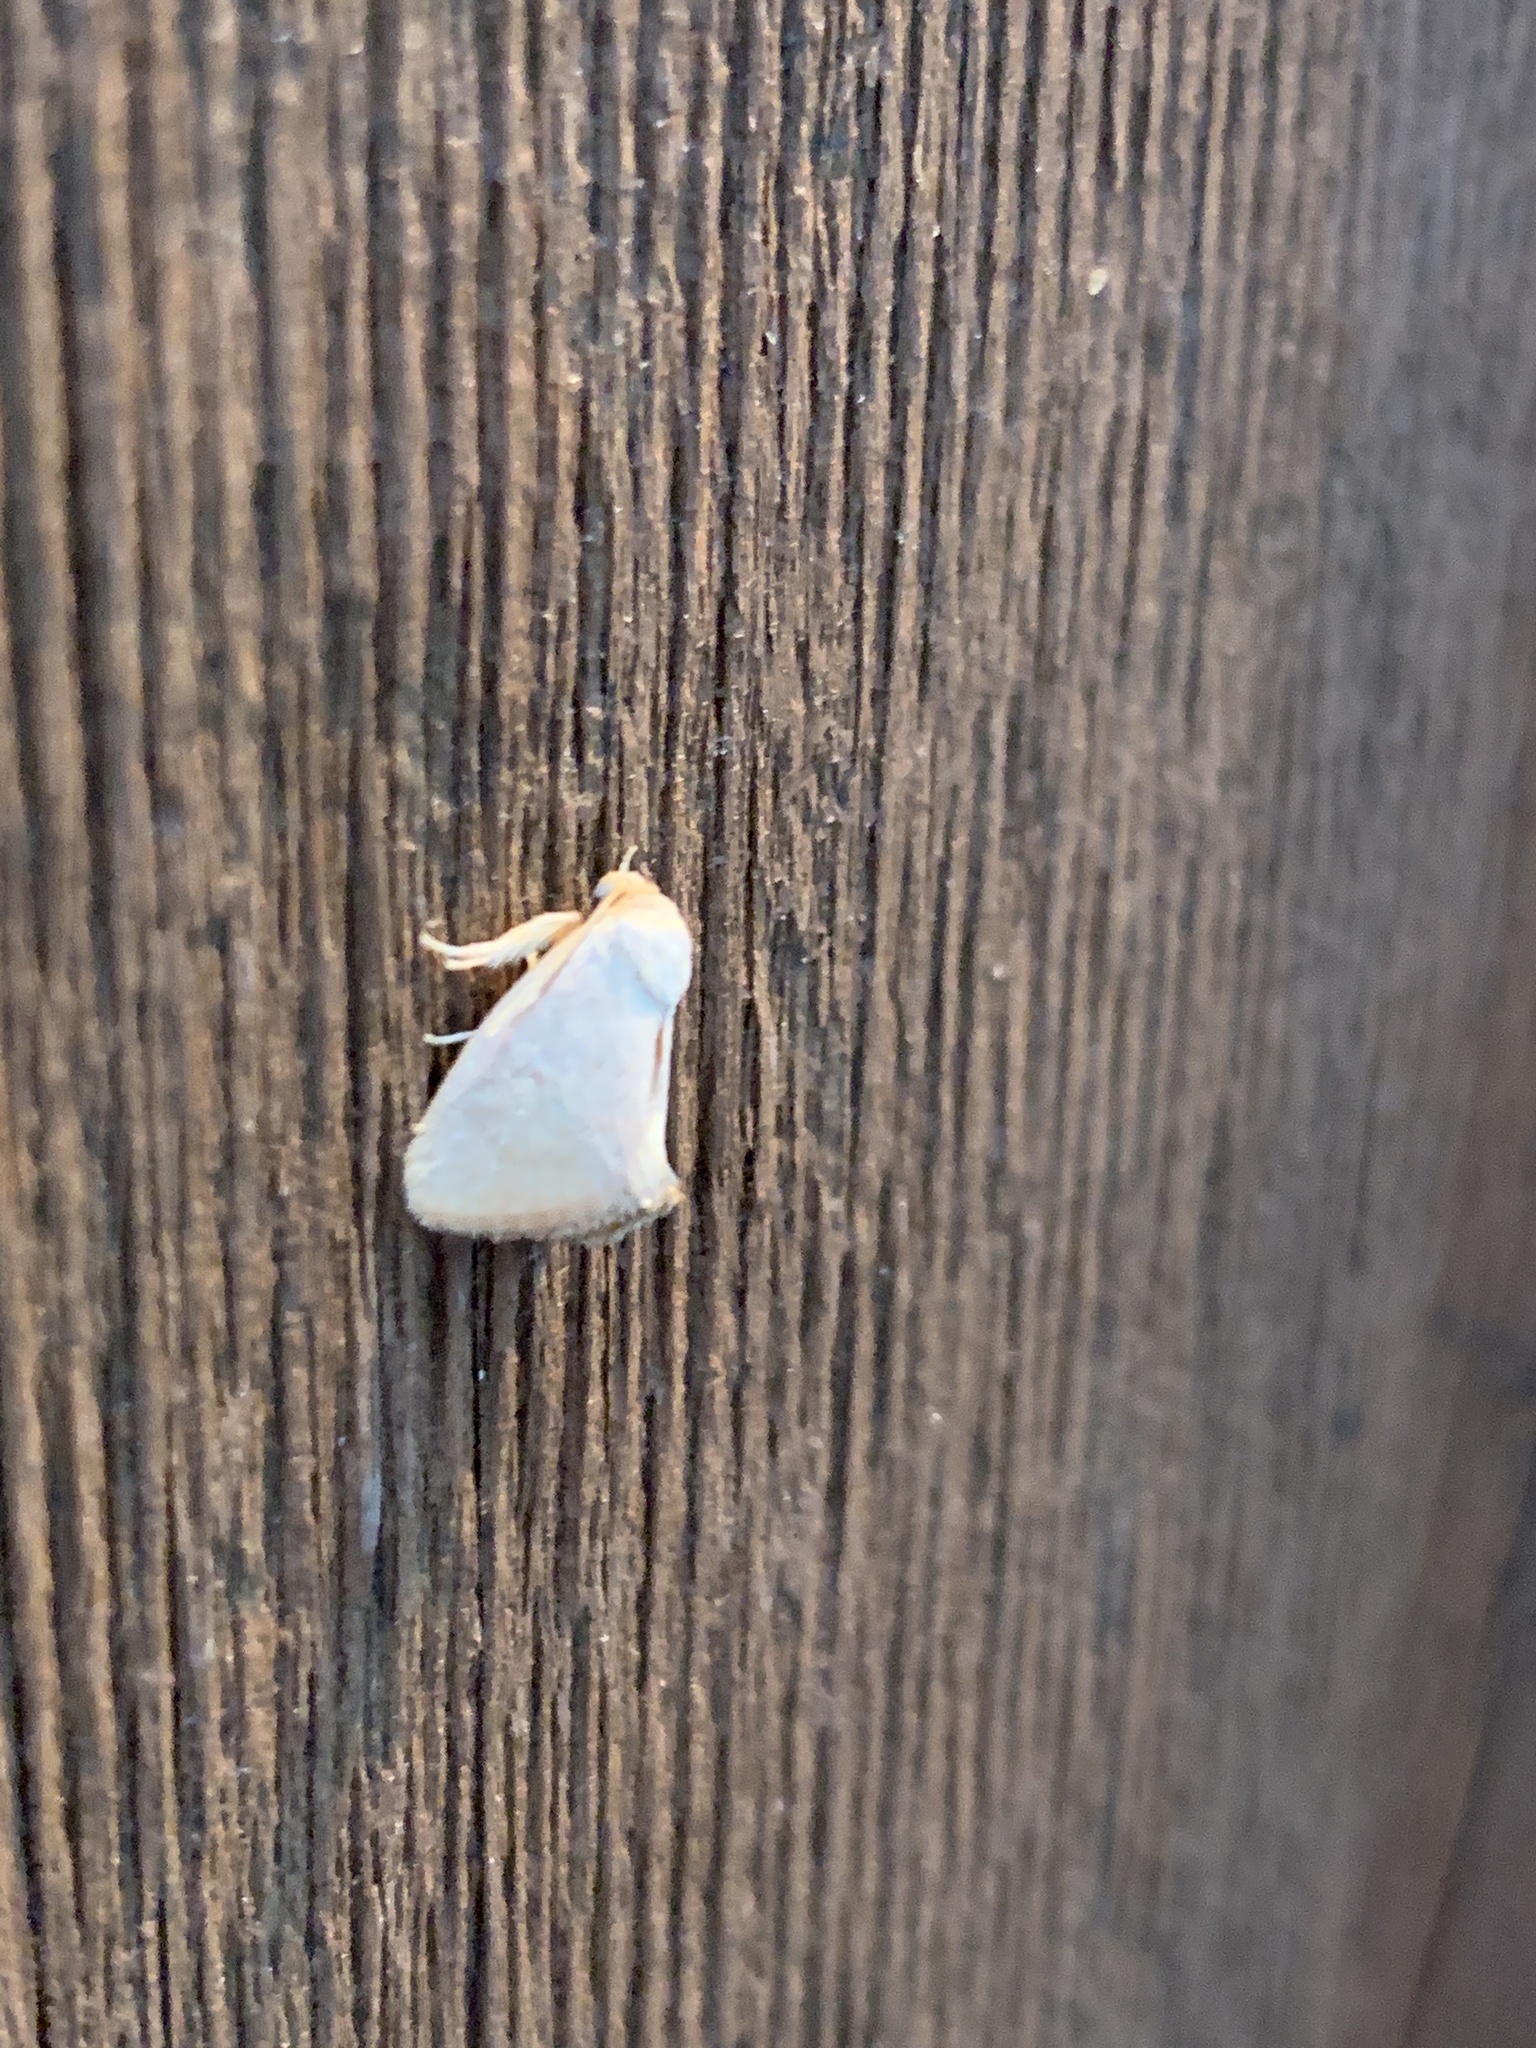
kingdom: Animalia
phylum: Arthropoda
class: Insecta
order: Lepidoptera
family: Limacodidae
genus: Tortricidia
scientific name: Tortricidia pallida
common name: Red-crossed button slug moth
